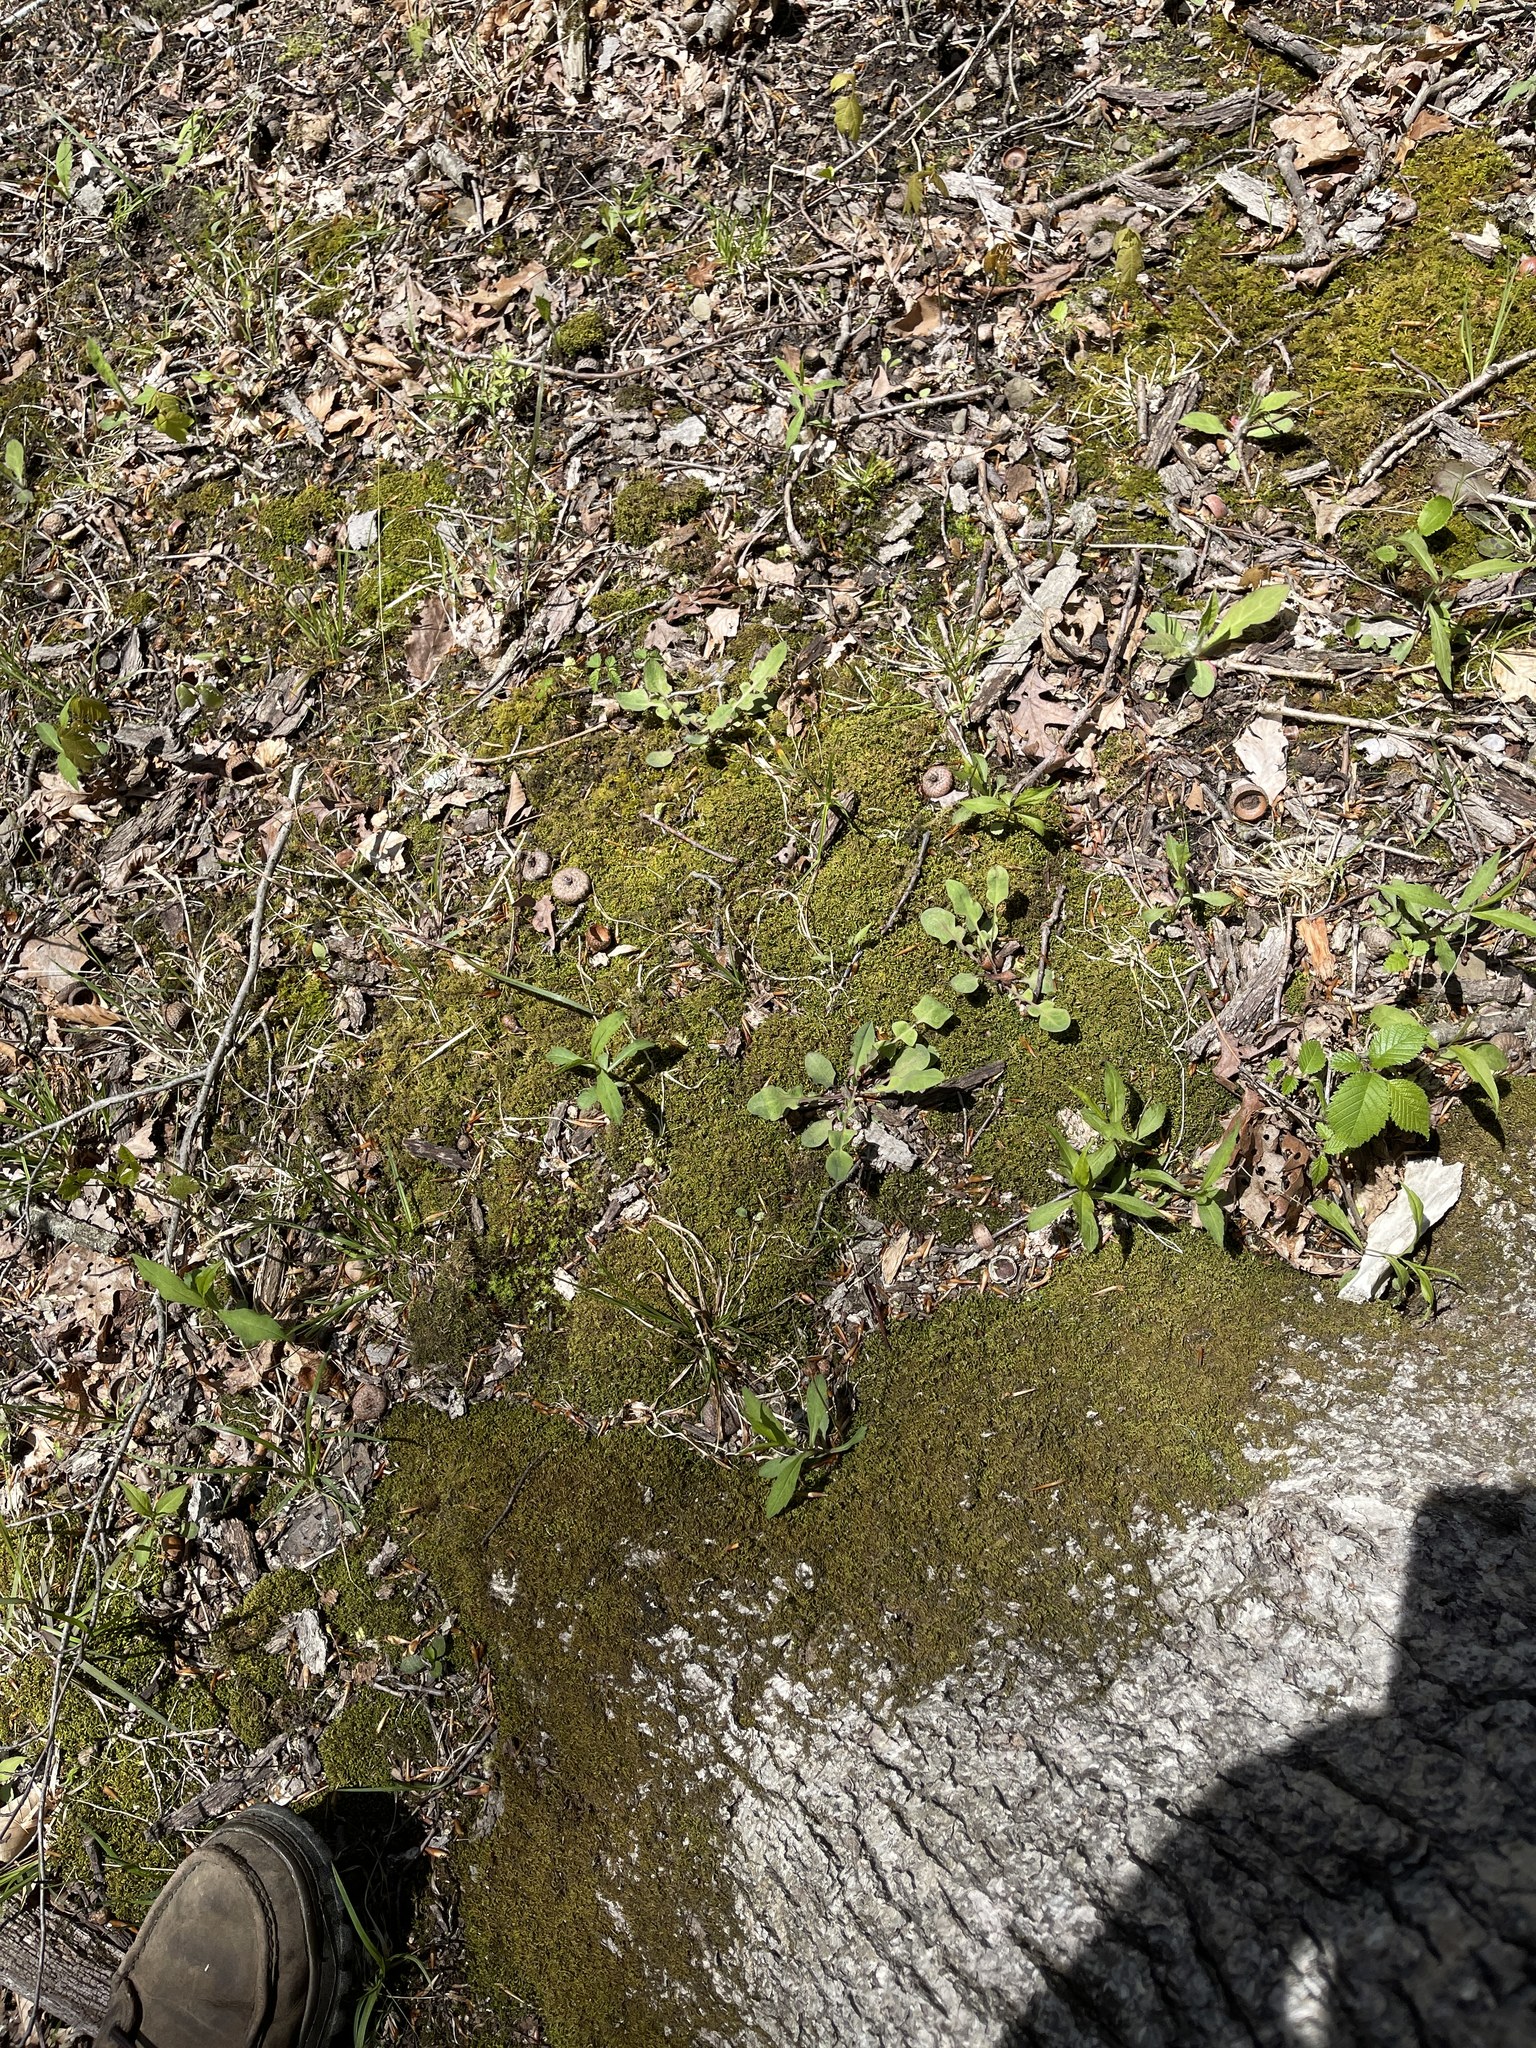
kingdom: Plantae
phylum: Tracheophyta
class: Magnoliopsida
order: Asterales
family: Asteraceae
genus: Krigia
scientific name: Krigia biflora
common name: Orange dwarf-dandelion
